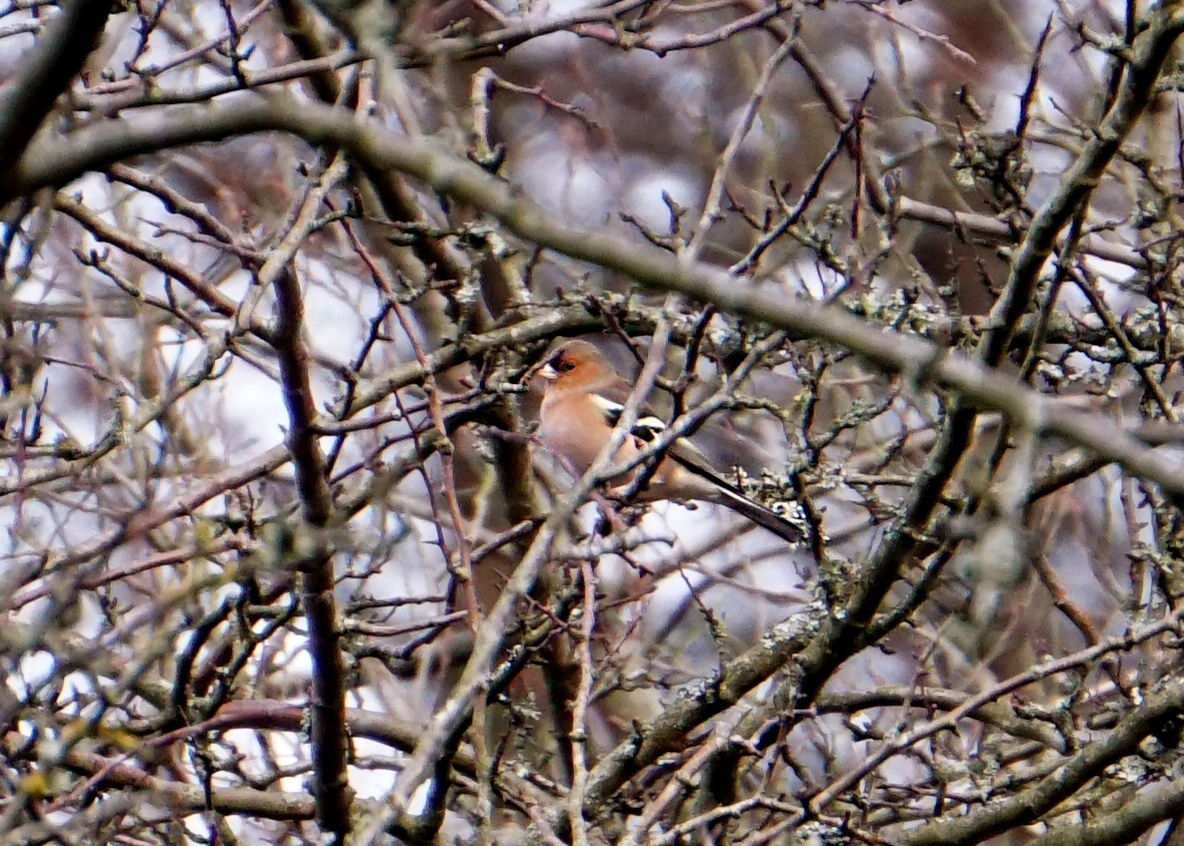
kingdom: Animalia
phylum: Chordata
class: Aves
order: Passeriformes
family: Fringillidae
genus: Fringilla
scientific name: Fringilla coelebs
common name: Common chaffinch
